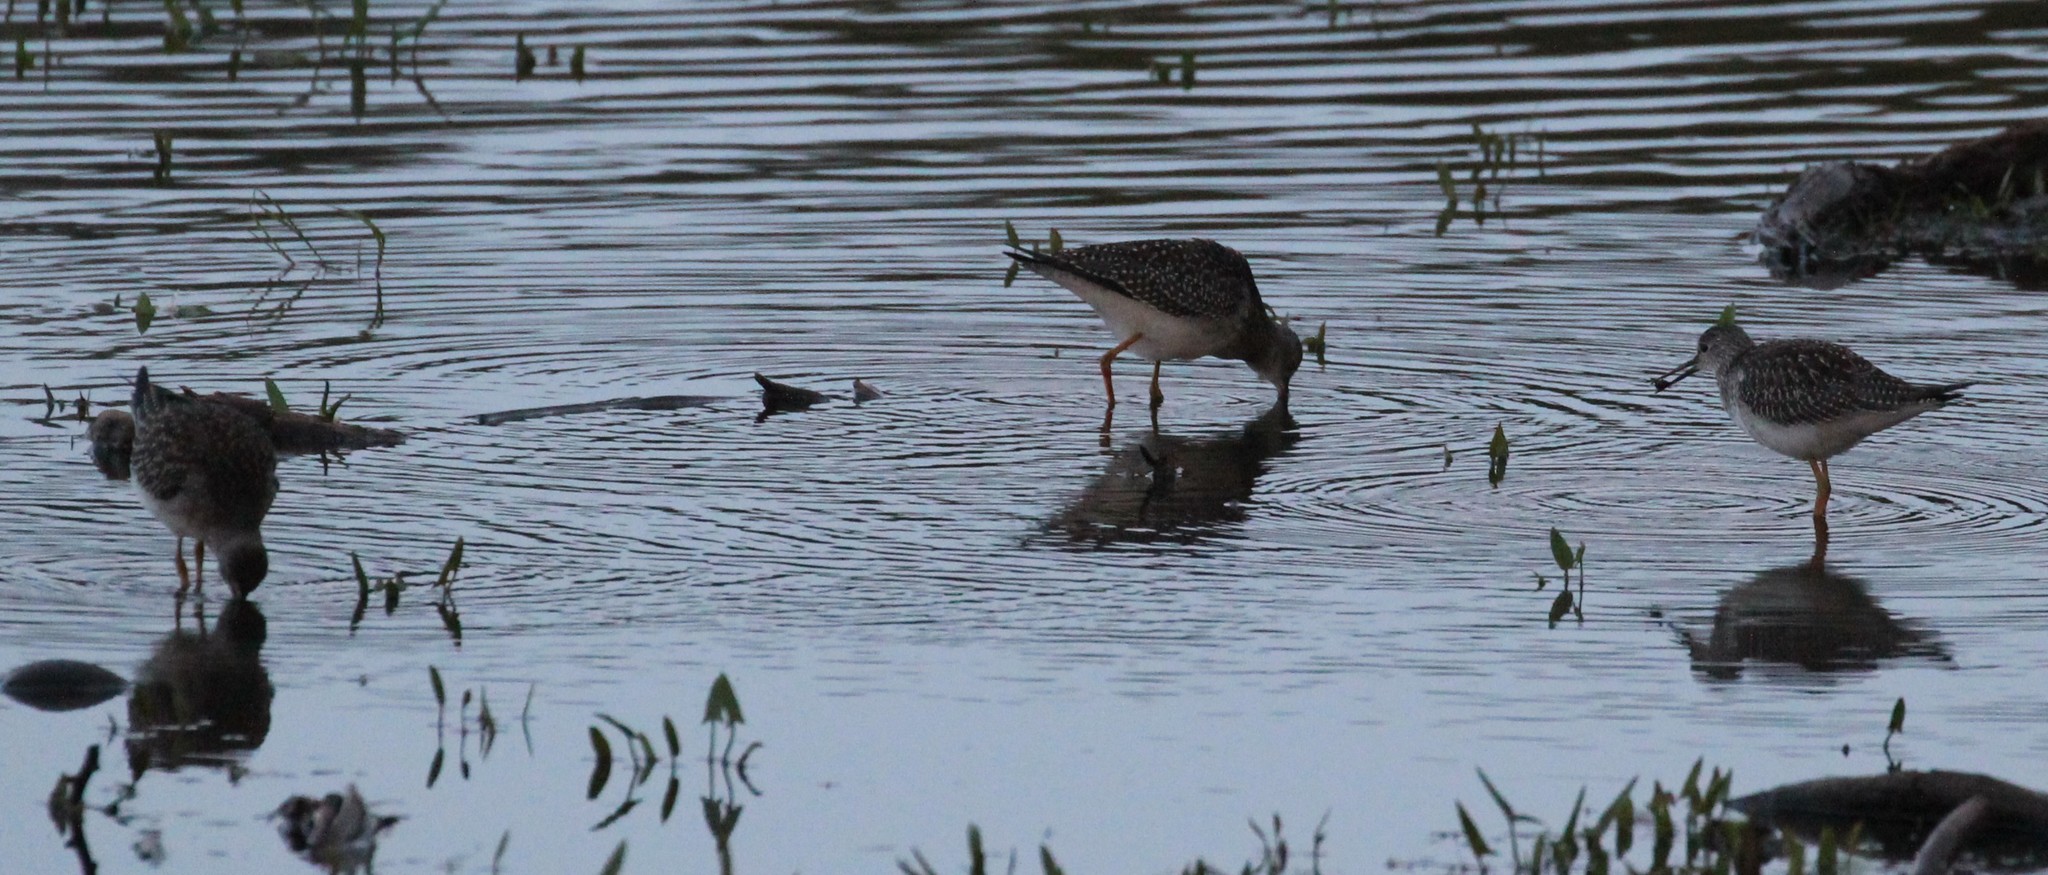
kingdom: Animalia
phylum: Chordata
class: Aves
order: Charadriiformes
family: Scolopacidae
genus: Tringa
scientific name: Tringa flavipes
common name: Lesser yellowlegs
